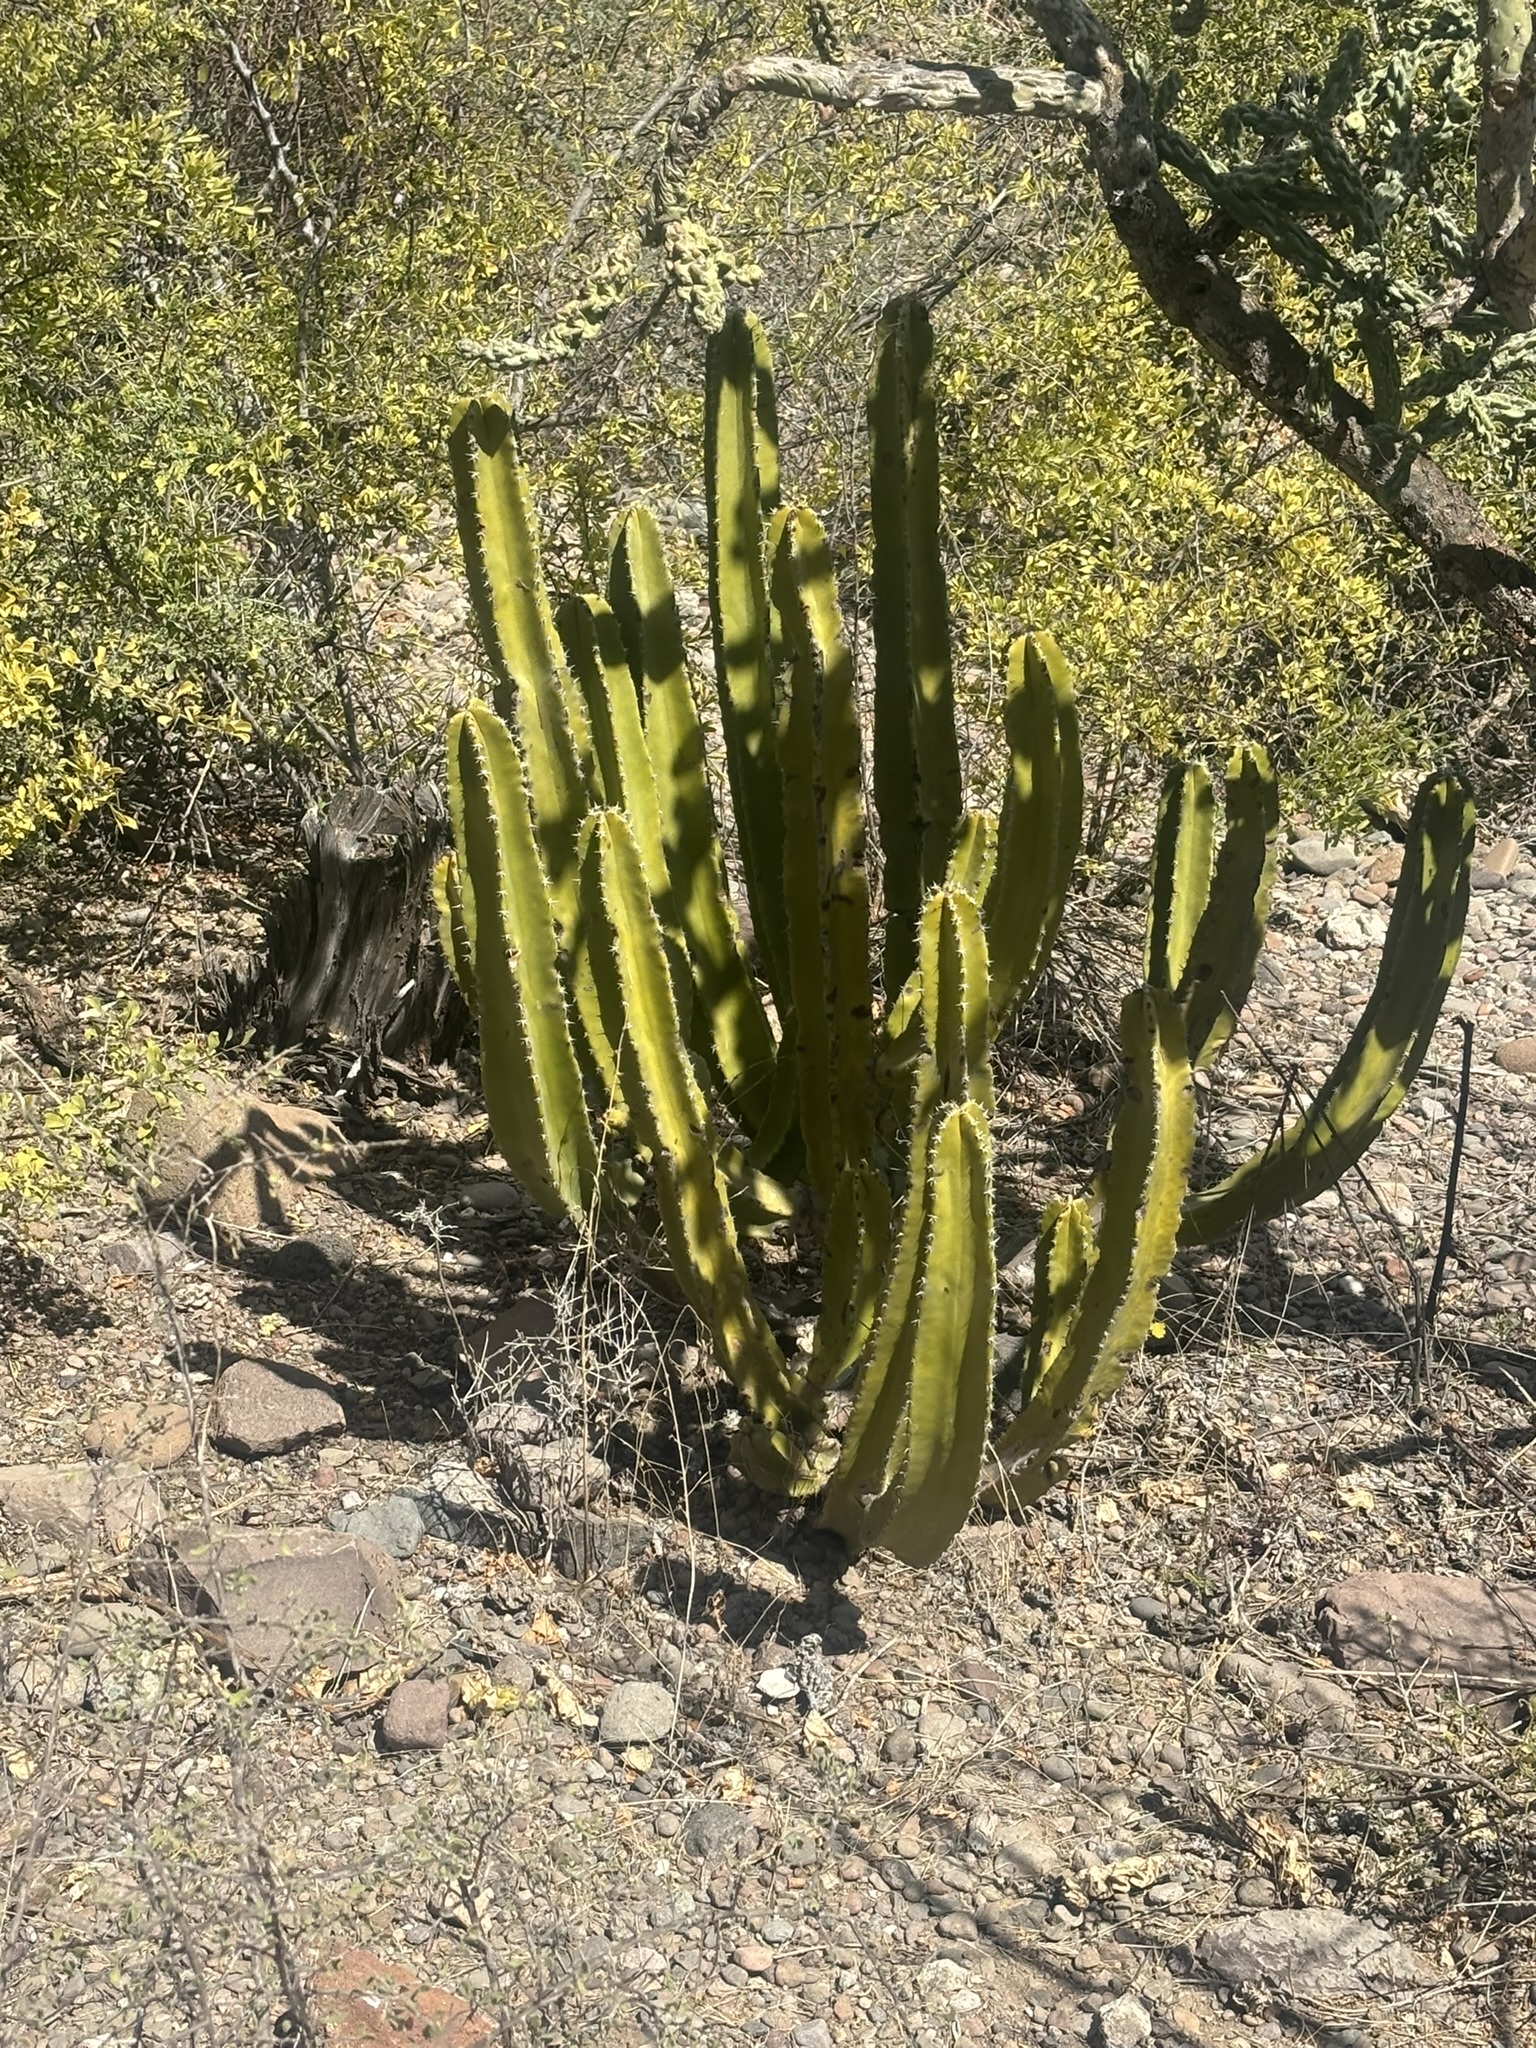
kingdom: Plantae
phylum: Tracheophyta
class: Magnoliopsida
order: Caryophyllales
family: Cactaceae
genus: Pachycereus
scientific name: Pachycereus schottii
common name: Senita cactus
